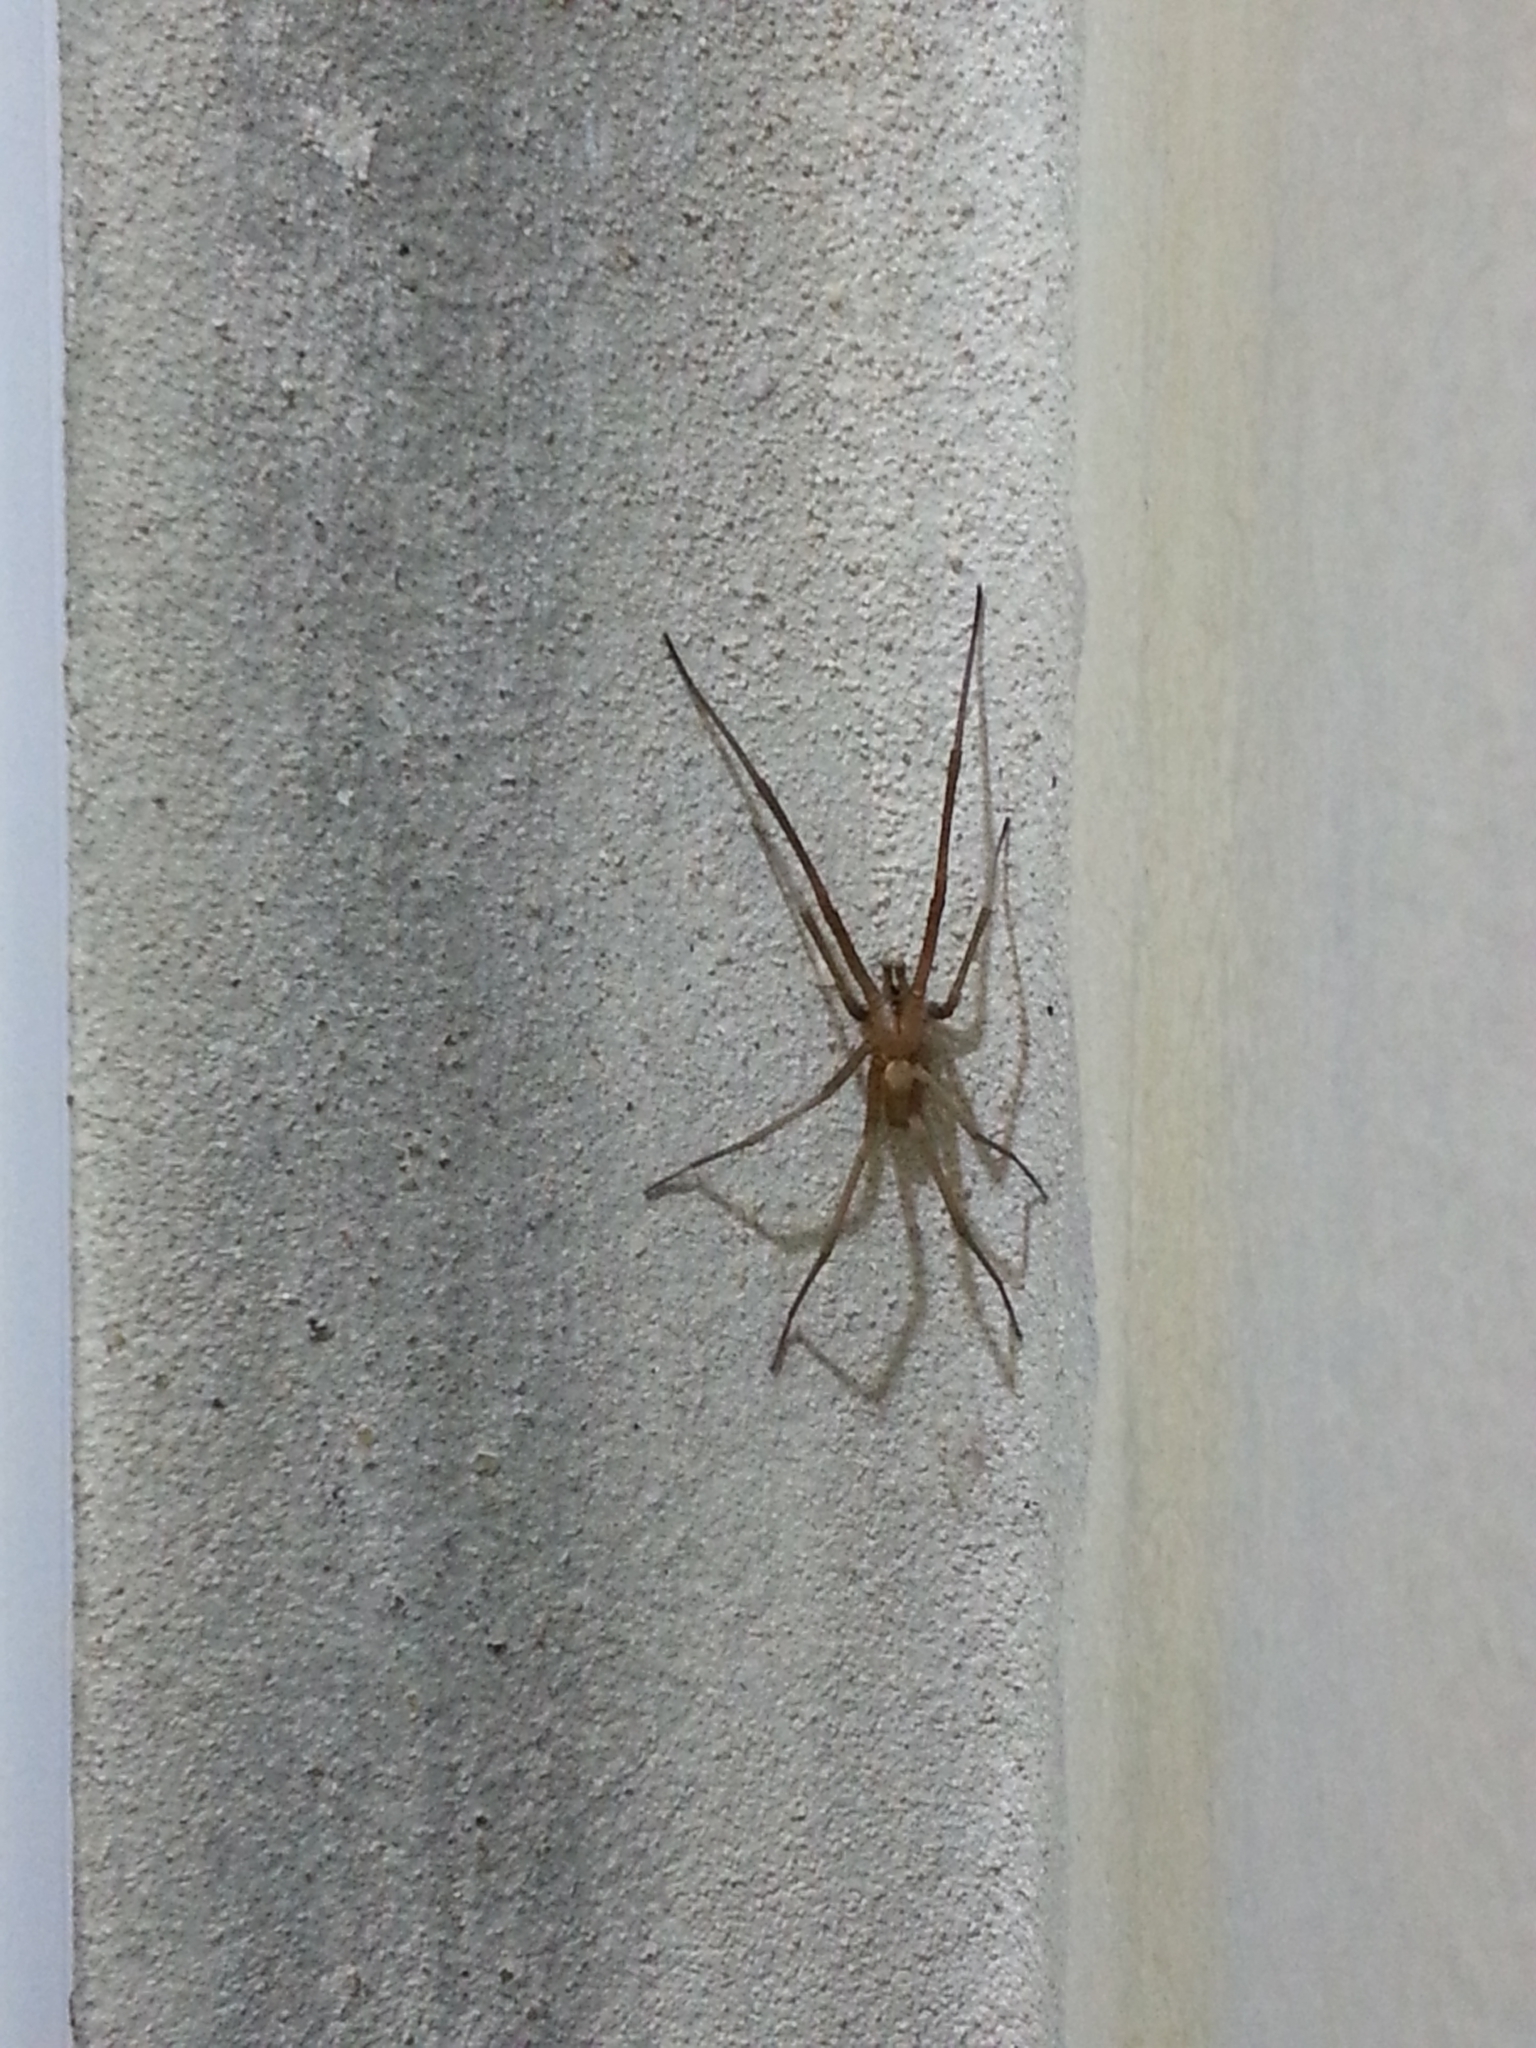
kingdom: Animalia
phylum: Arthropoda
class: Arachnida
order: Araneae
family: Filistatidae
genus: Kukulcania
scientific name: Kukulcania hibernalis
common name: Crevice weaver
